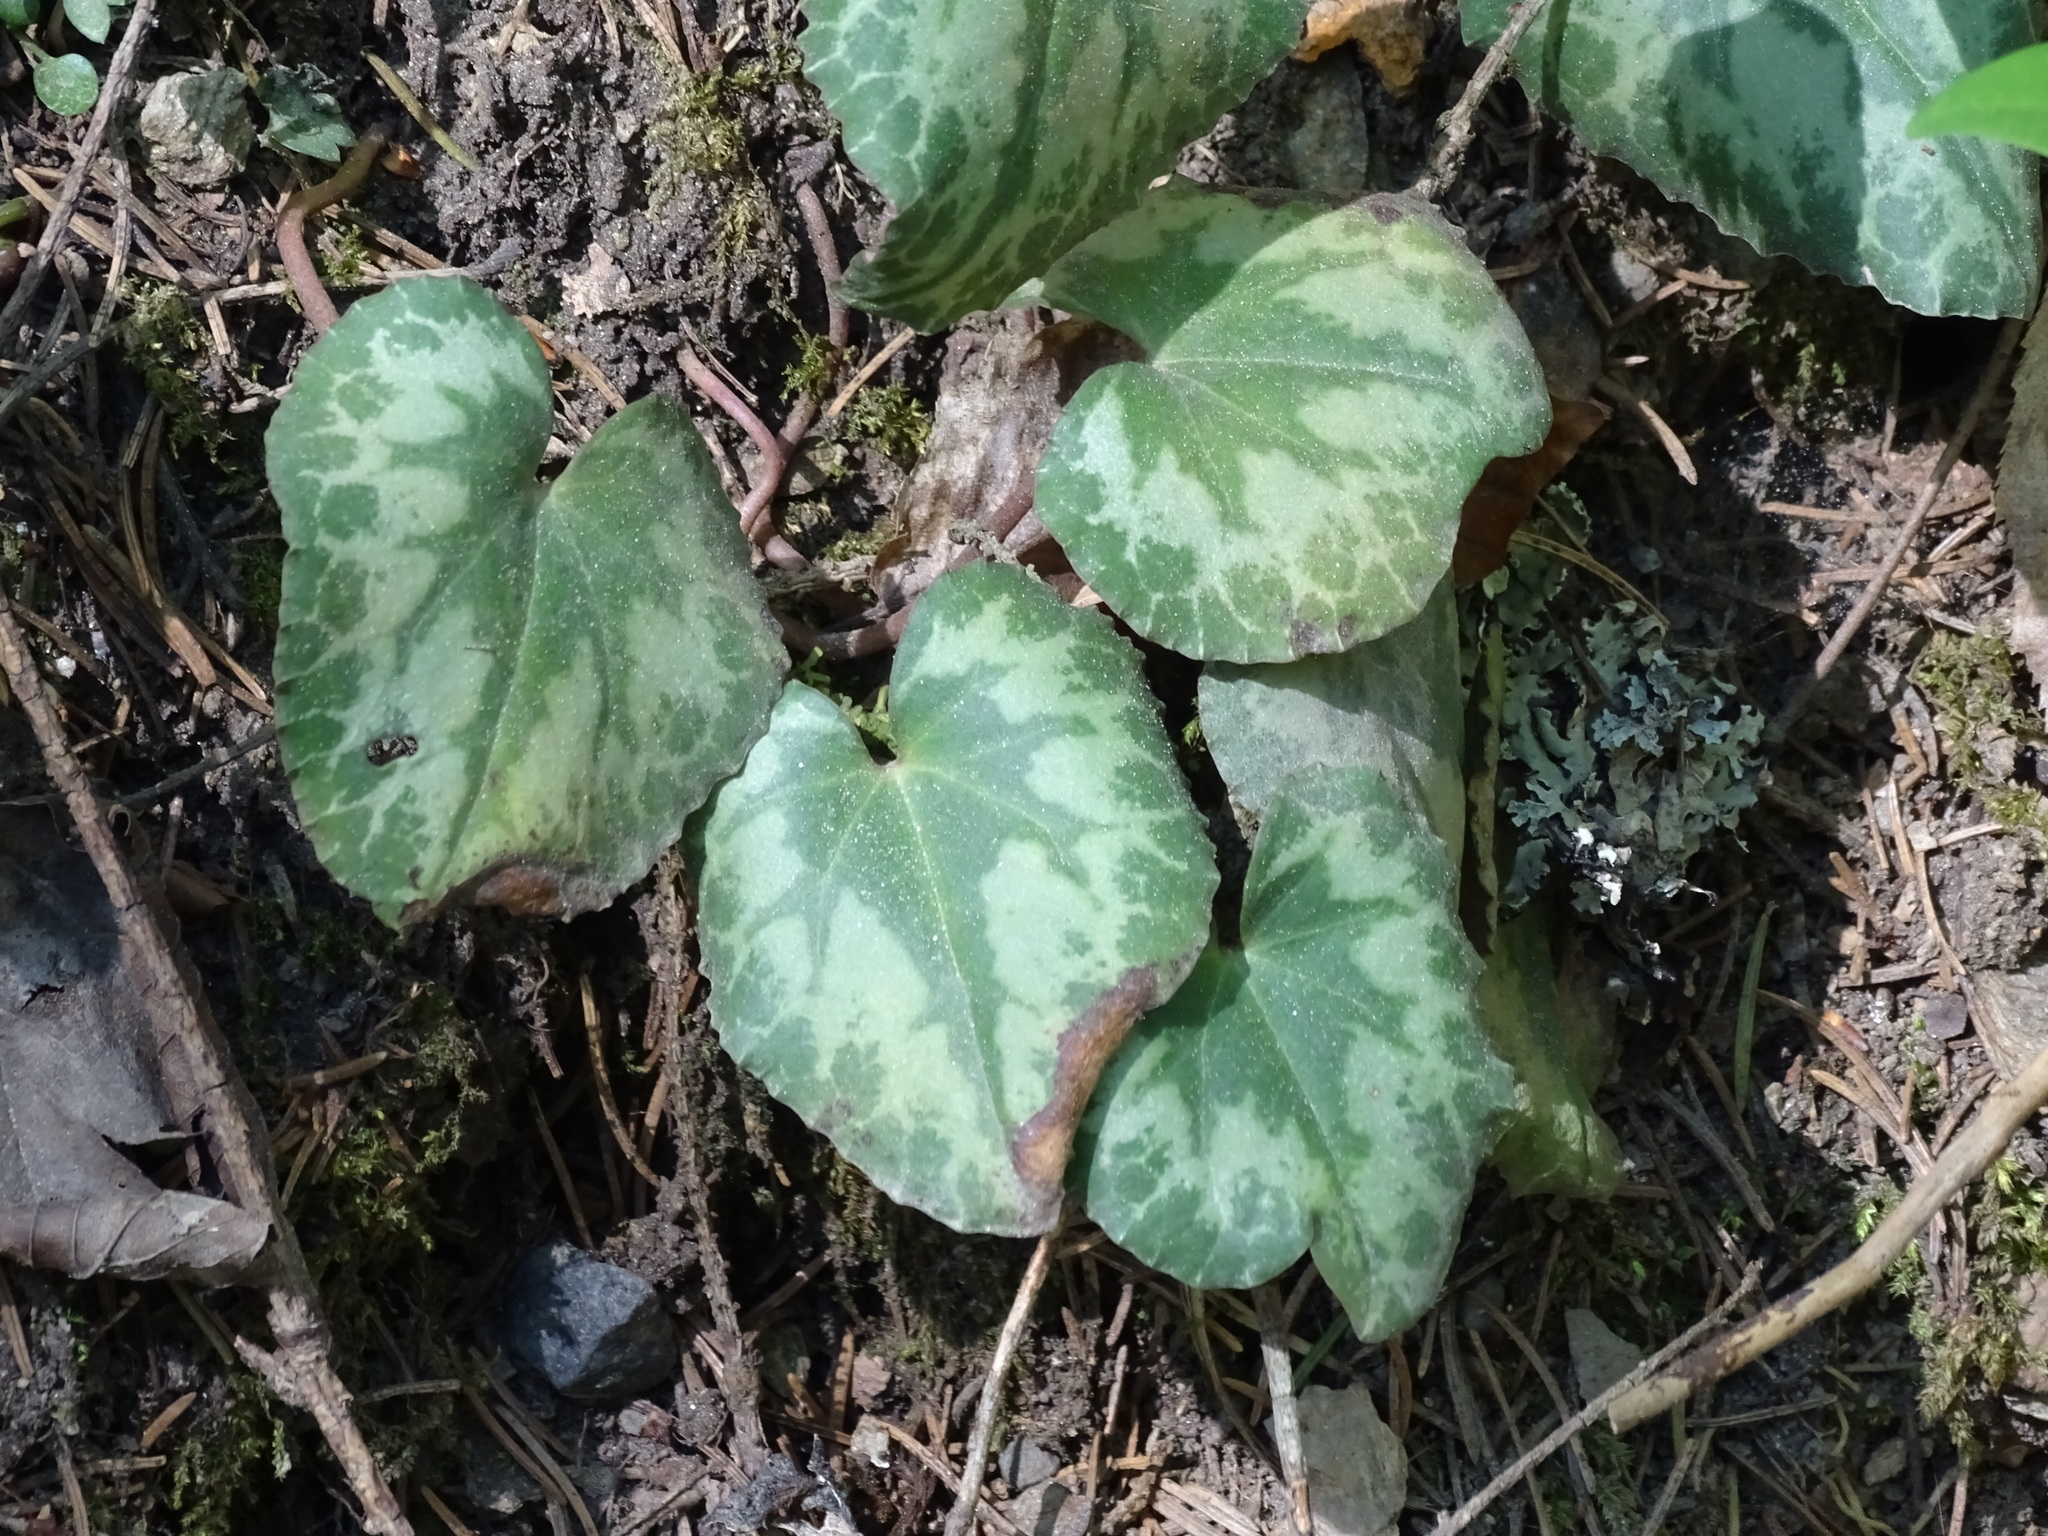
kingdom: Plantae
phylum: Tracheophyta
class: Magnoliopsida
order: Ericales
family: Primulaceae
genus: Cyclamen
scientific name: Cyclamen purpurascens
